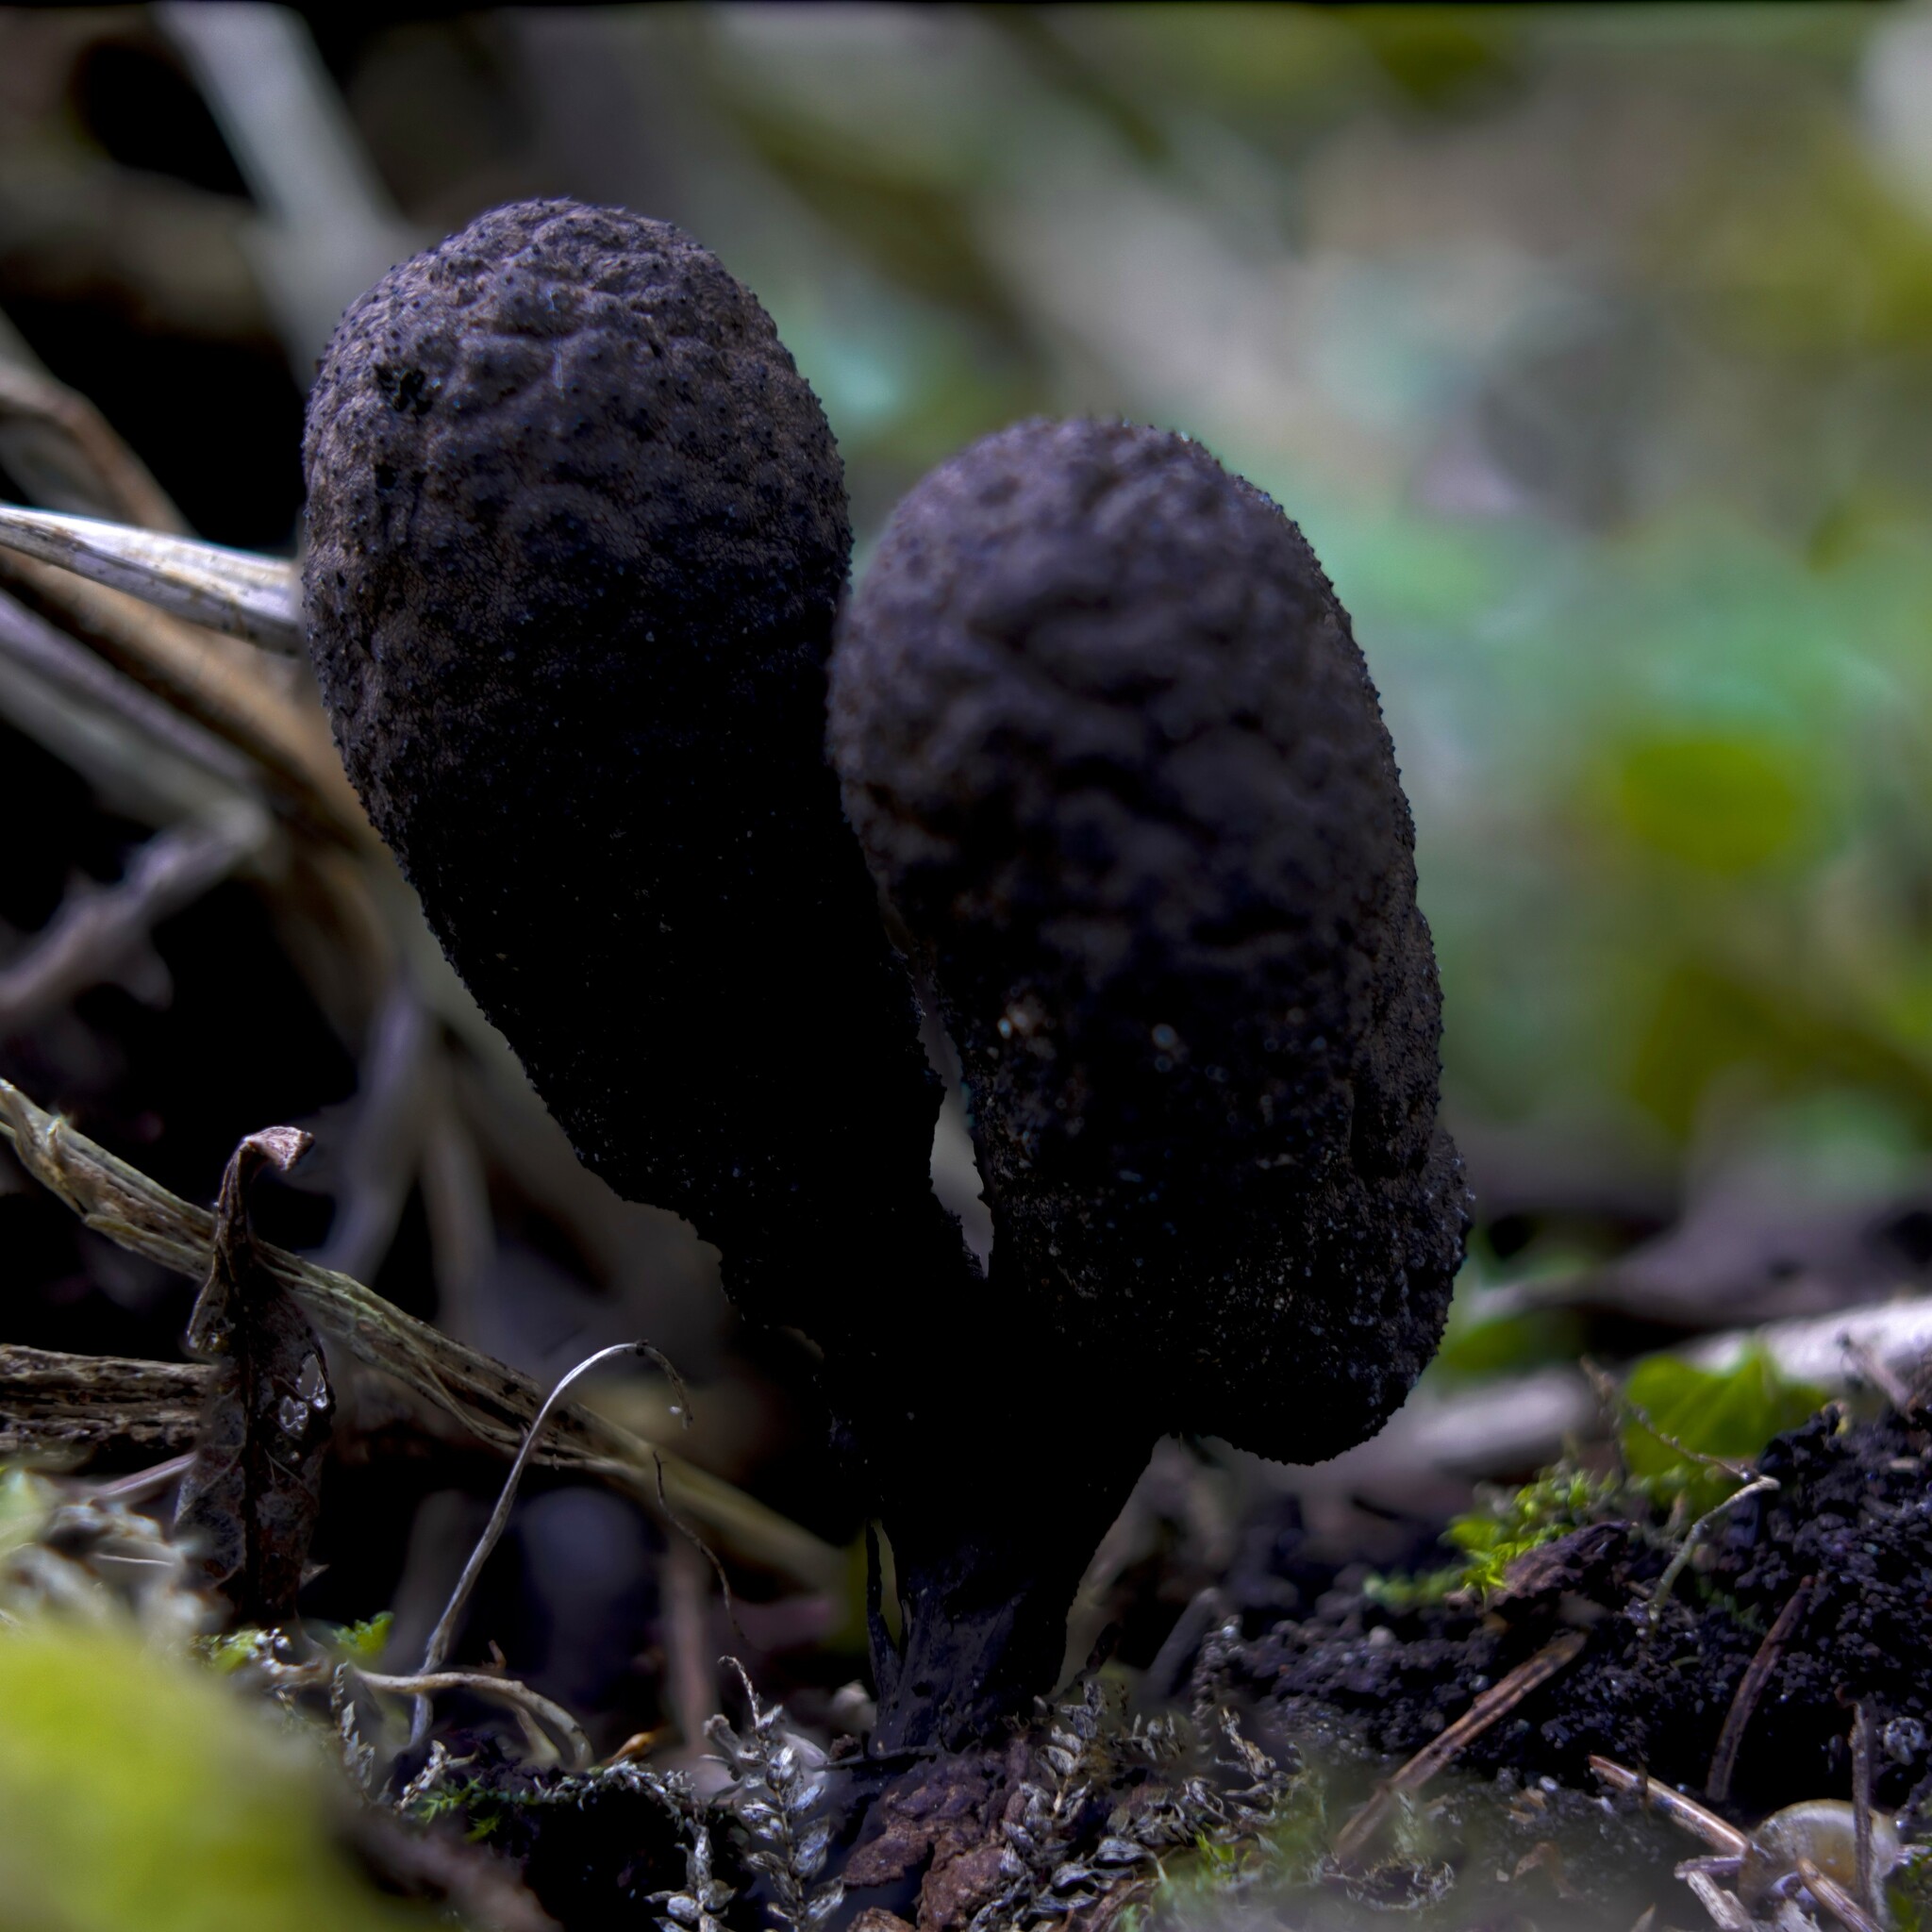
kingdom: Fungi
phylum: Ascomycota
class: Sordariomycetes
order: Xylariales
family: Xylariaceae
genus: Xylaria
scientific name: Xylaria polymorpha
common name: Dead man's fingers
